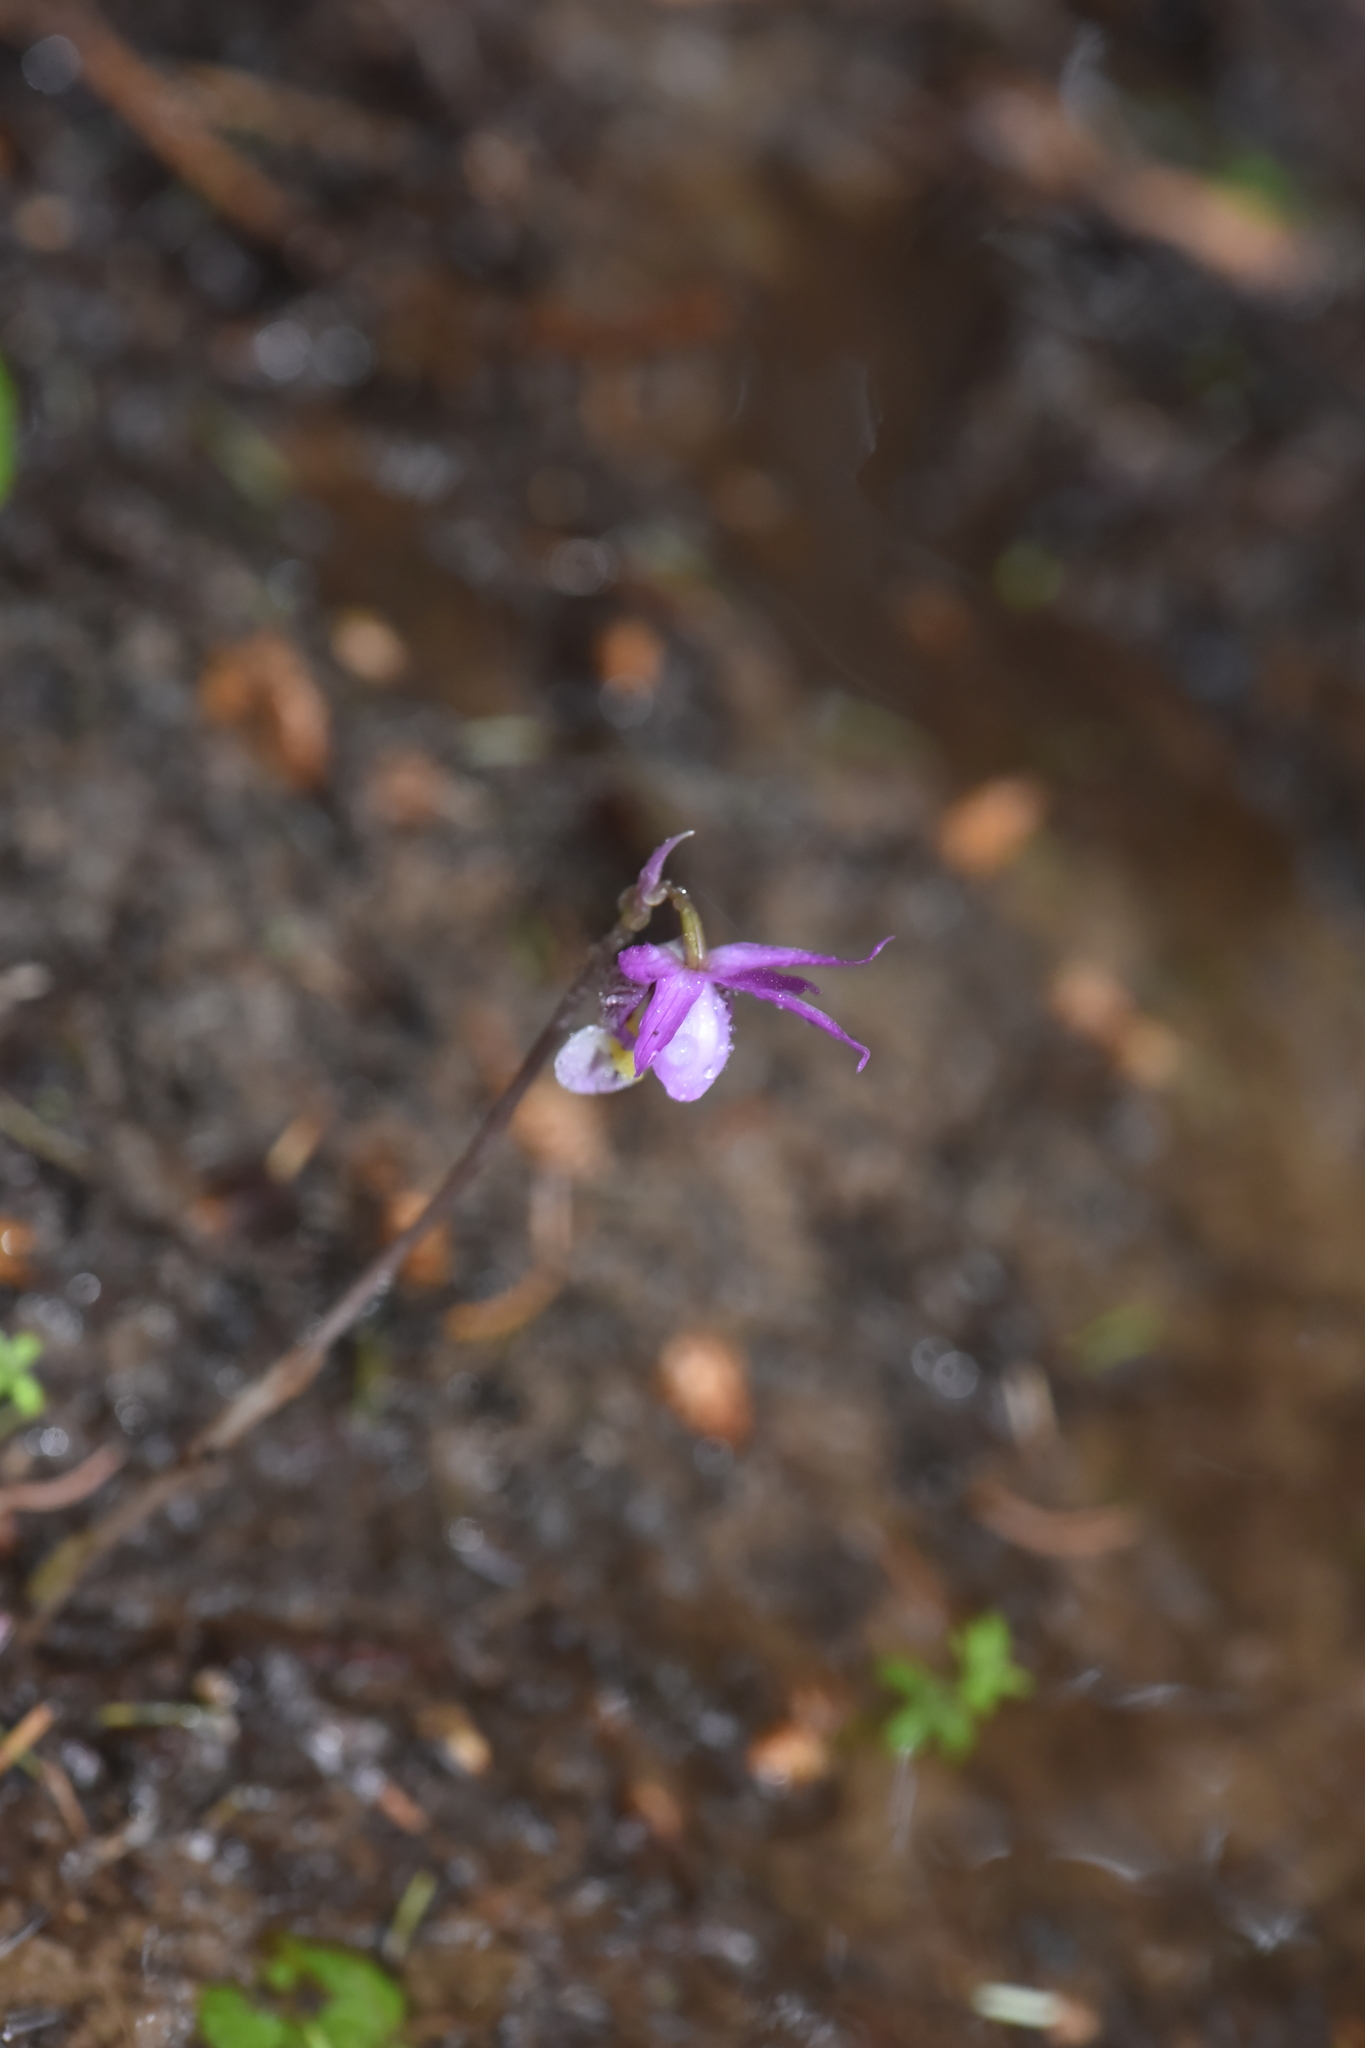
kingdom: Plantae
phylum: Tracheophyta
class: Liliopsida
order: Asparagales
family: Orchidaceae
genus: Calypso
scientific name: Calypso bulbosa
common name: Calypso
